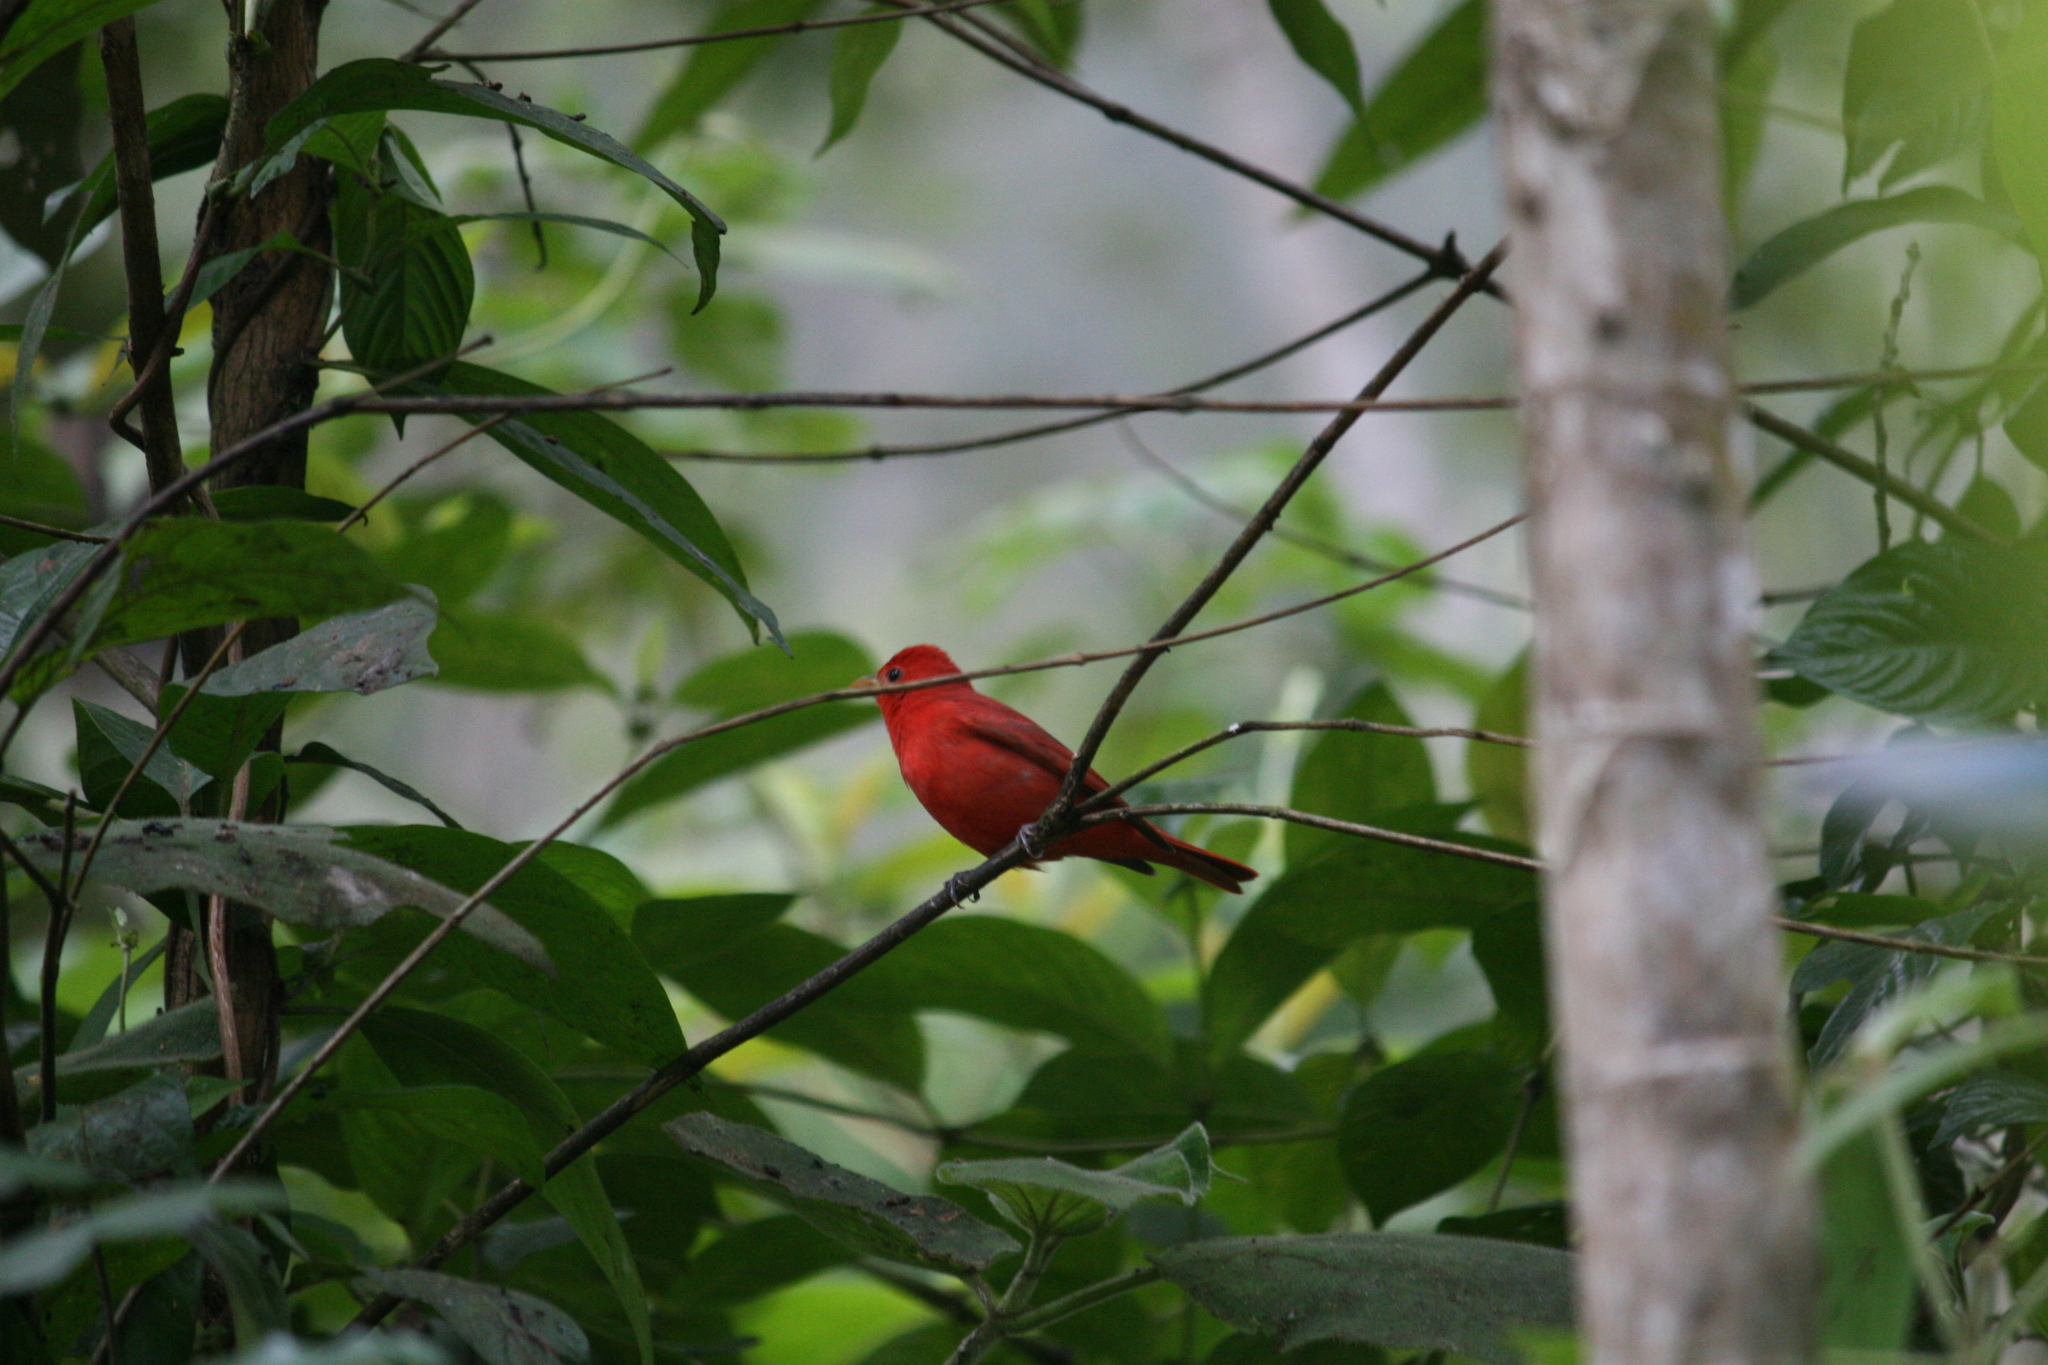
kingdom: Animalia
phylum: Chordata
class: Aves
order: Passeriformes
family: Cardinalidae
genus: Piranga
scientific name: Piranga rubra
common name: Summer tanager
